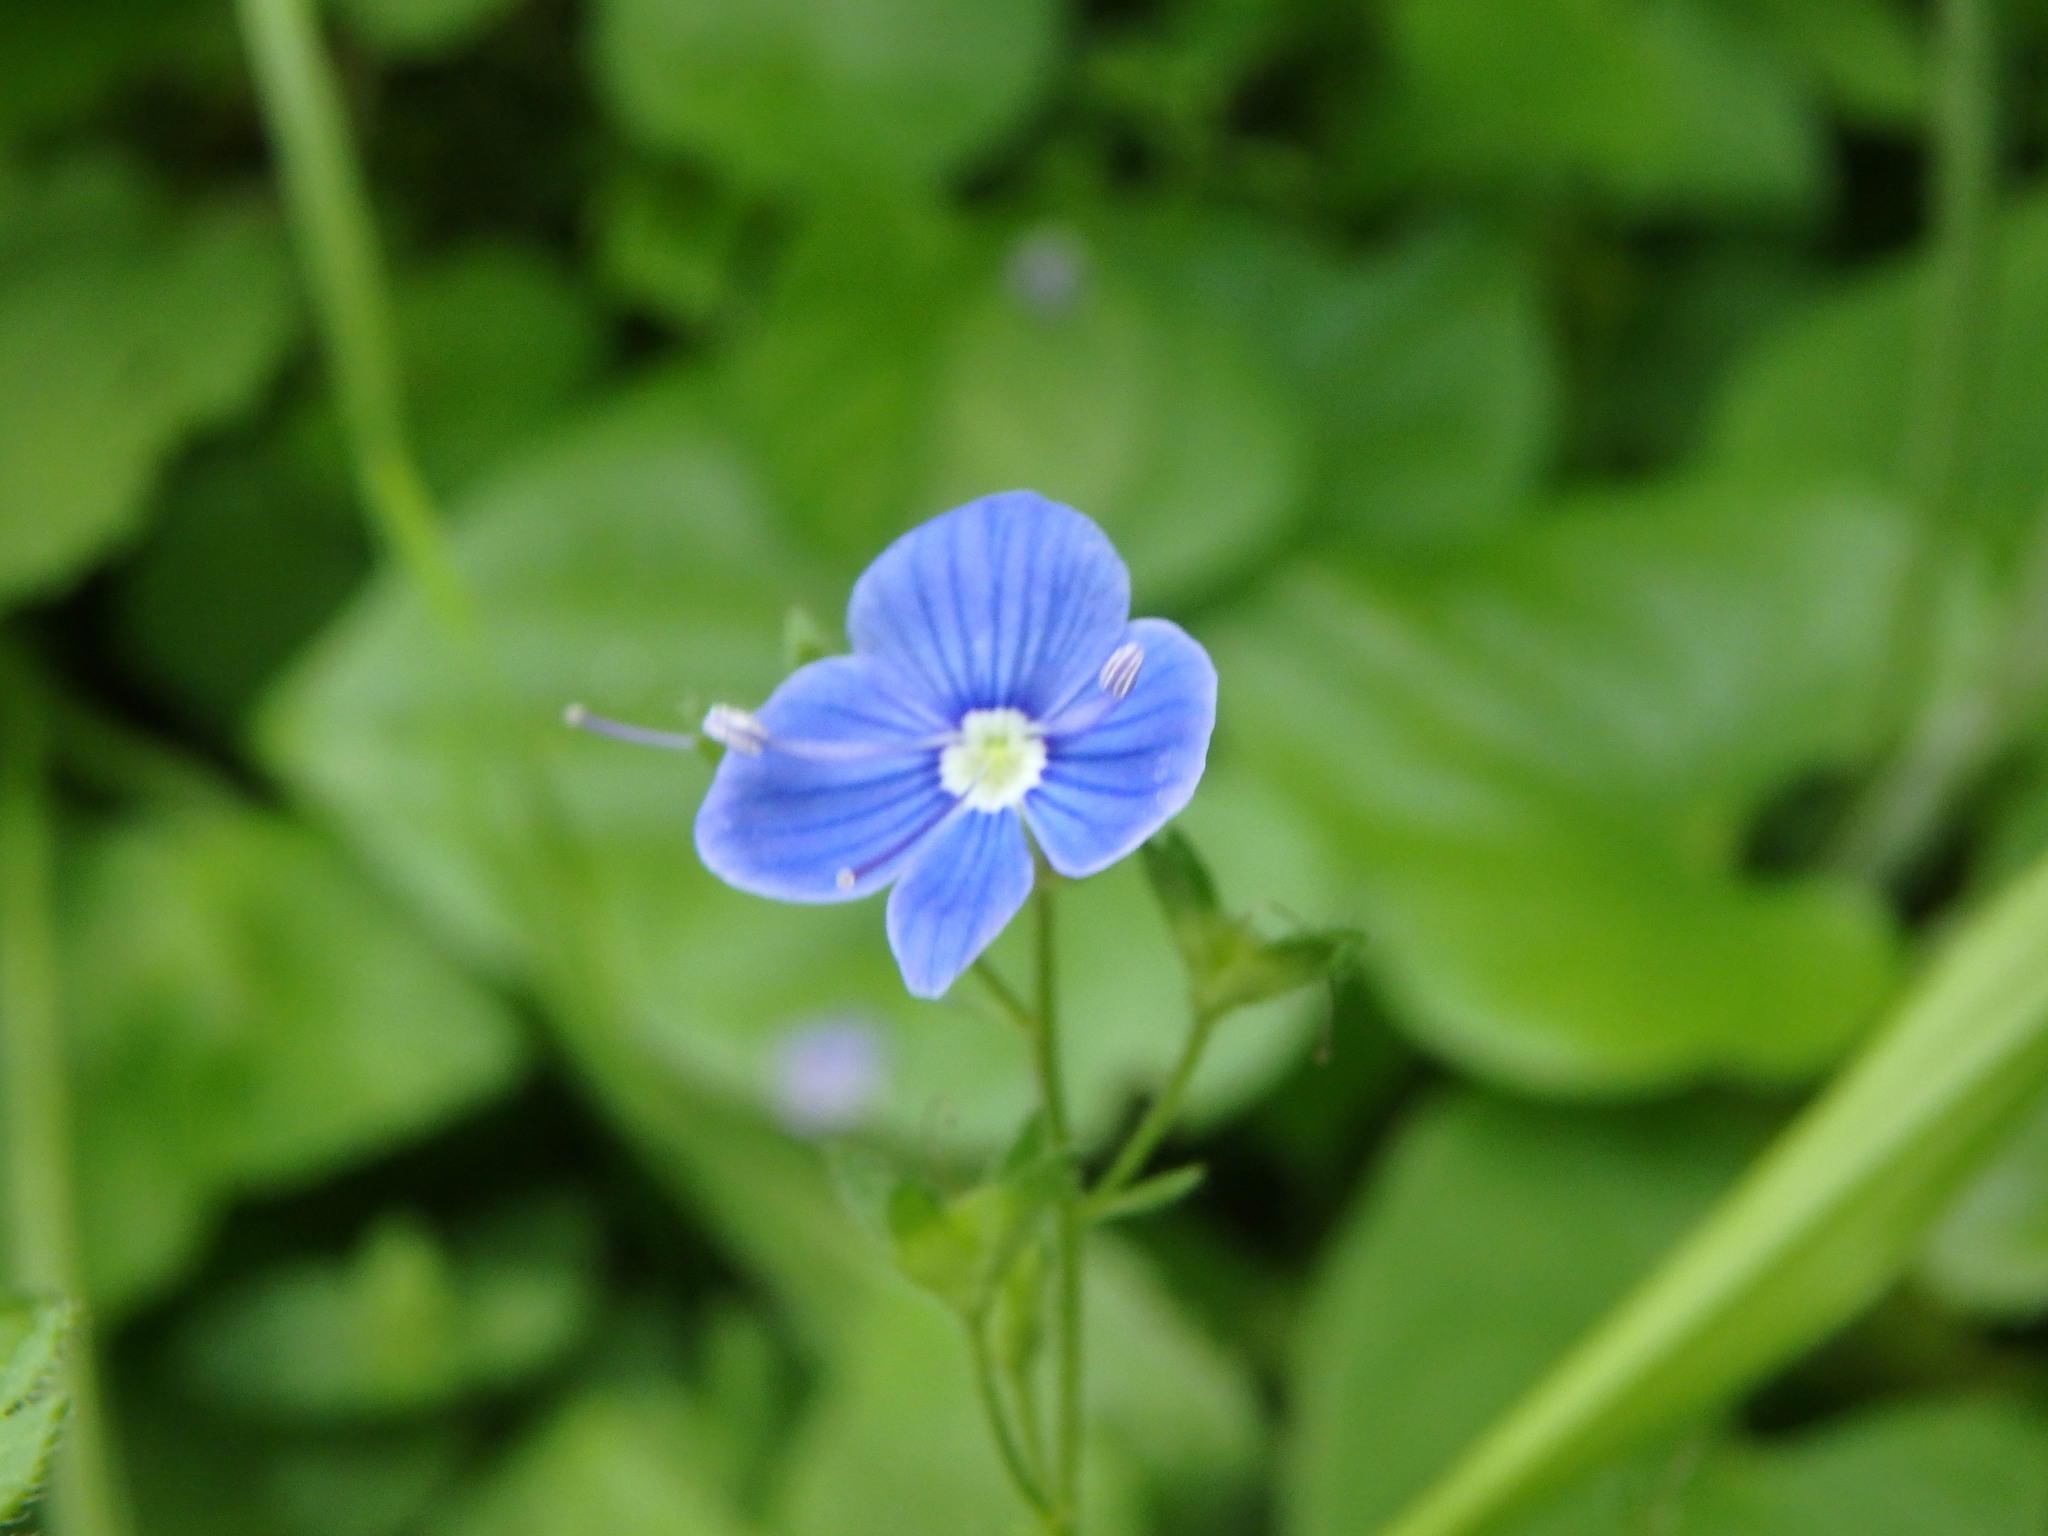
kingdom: Plantae
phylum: Tracheophyta
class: Magnoliopsida
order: Lamiales
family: Plantaginaceae
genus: Veronica
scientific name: Veronica chamaedrys
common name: Germander speedwell
